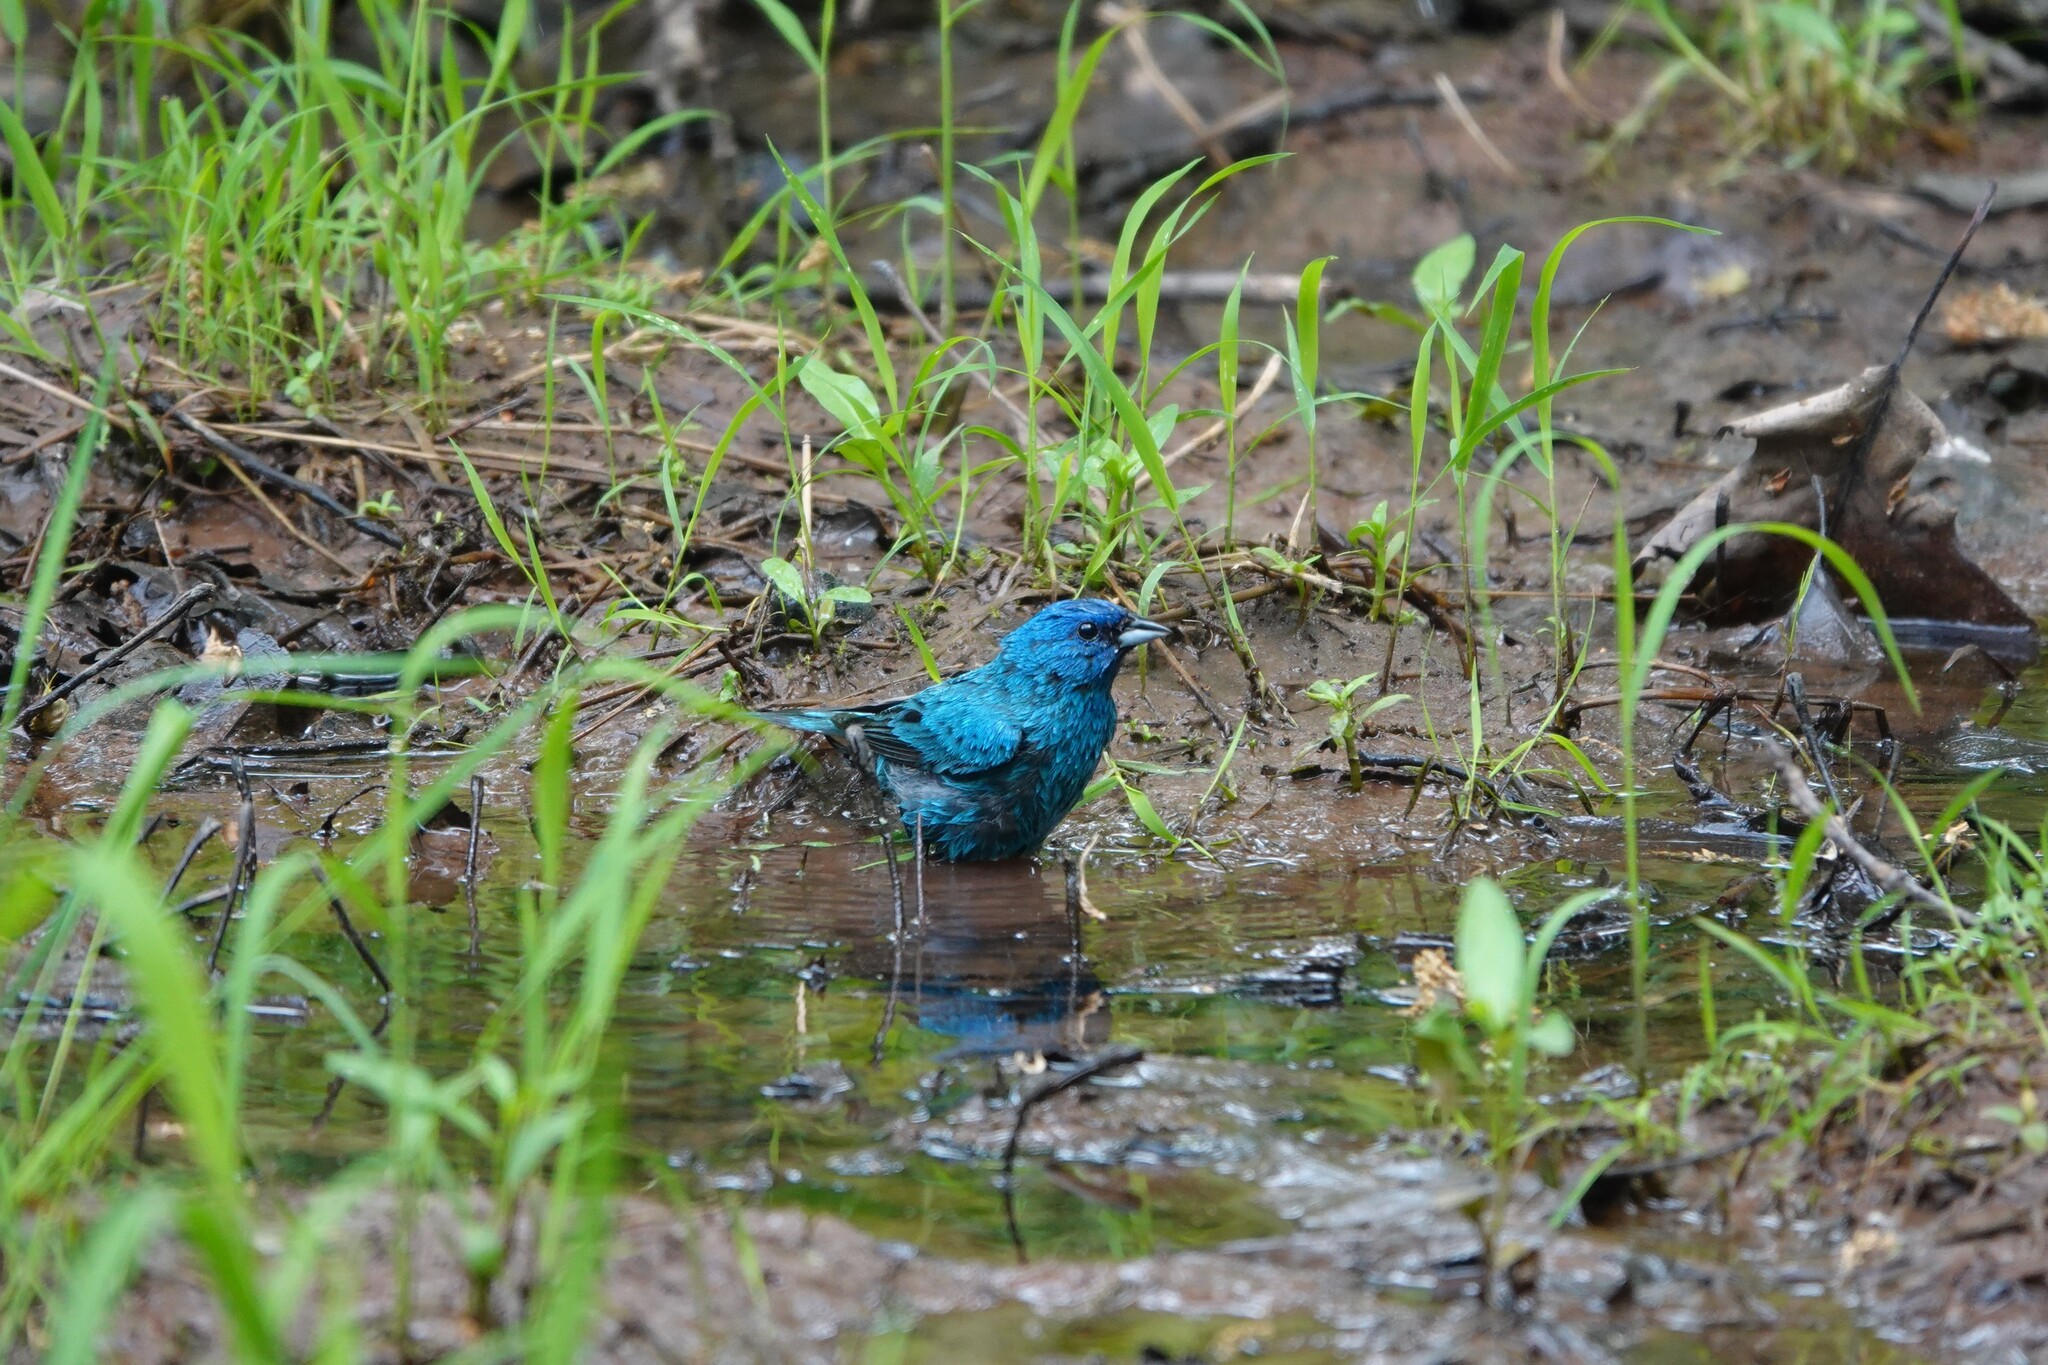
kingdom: Animalia
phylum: Chordata
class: Aves
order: Passeriformes
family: Cardinalidae
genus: Passerina
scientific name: Passerina cyanea
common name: Indigo bunting
